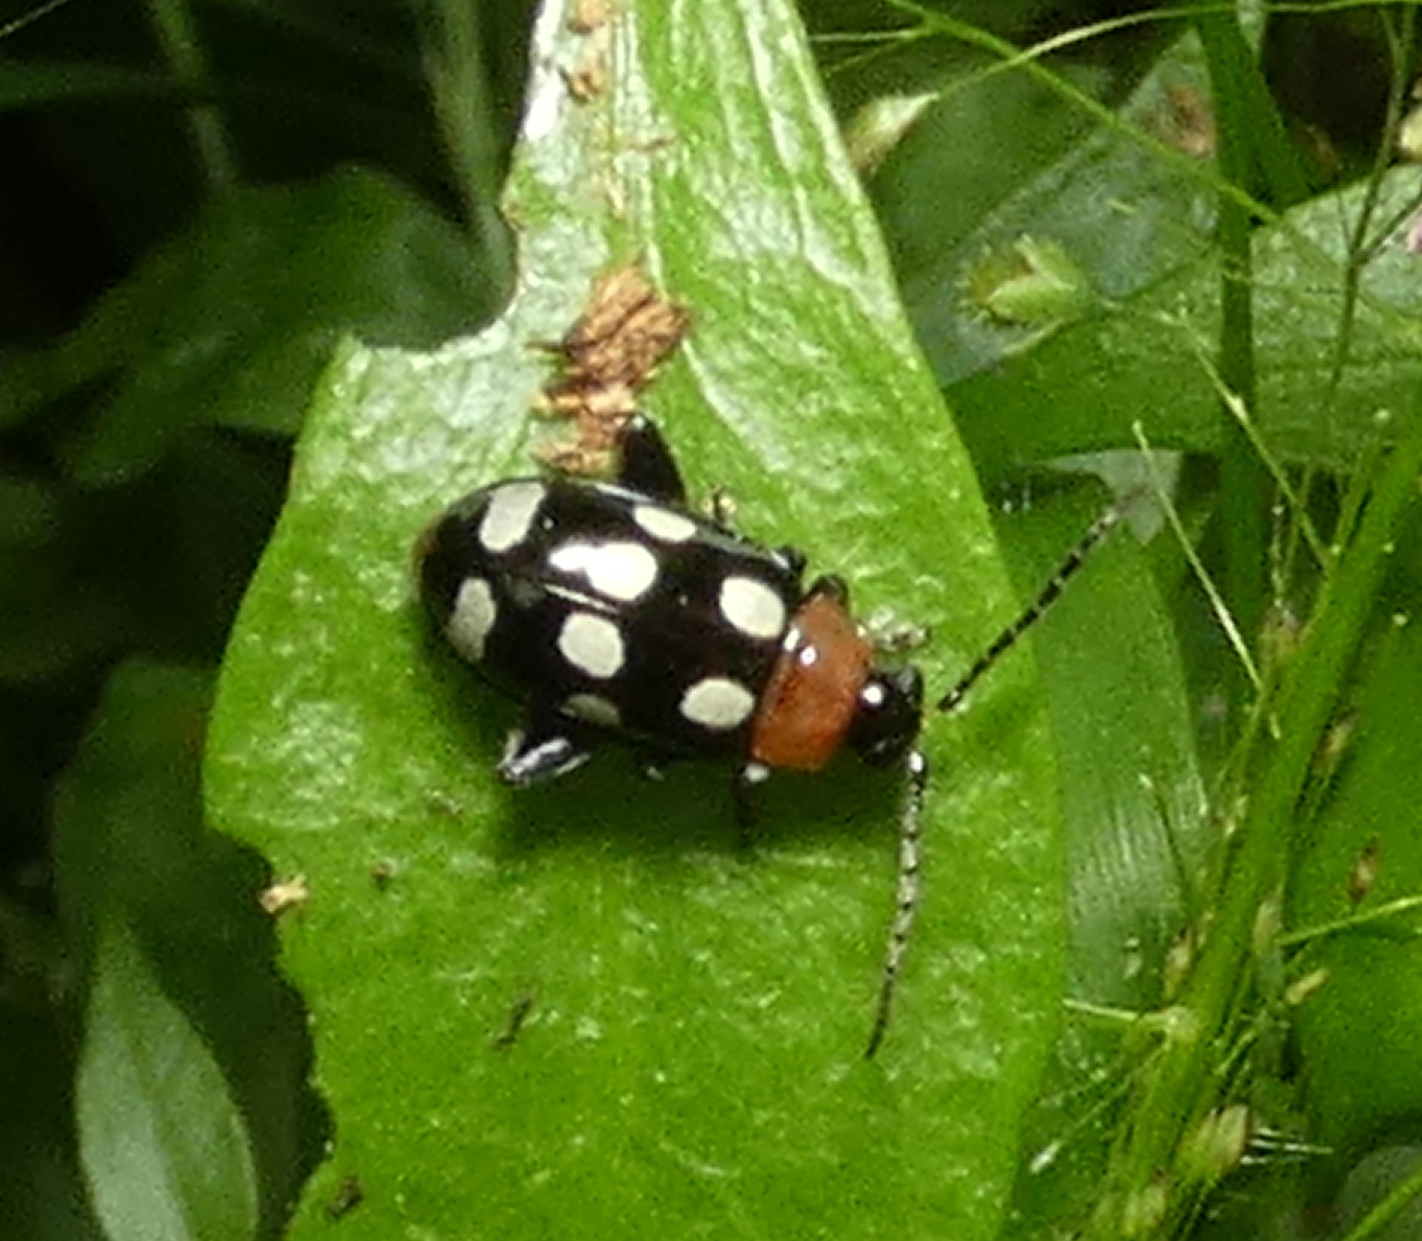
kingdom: Animalia
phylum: Arthropoda
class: Insecta
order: Coleoptera
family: Chrysomelidae
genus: Phenrica
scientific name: Phenrica austriaca
